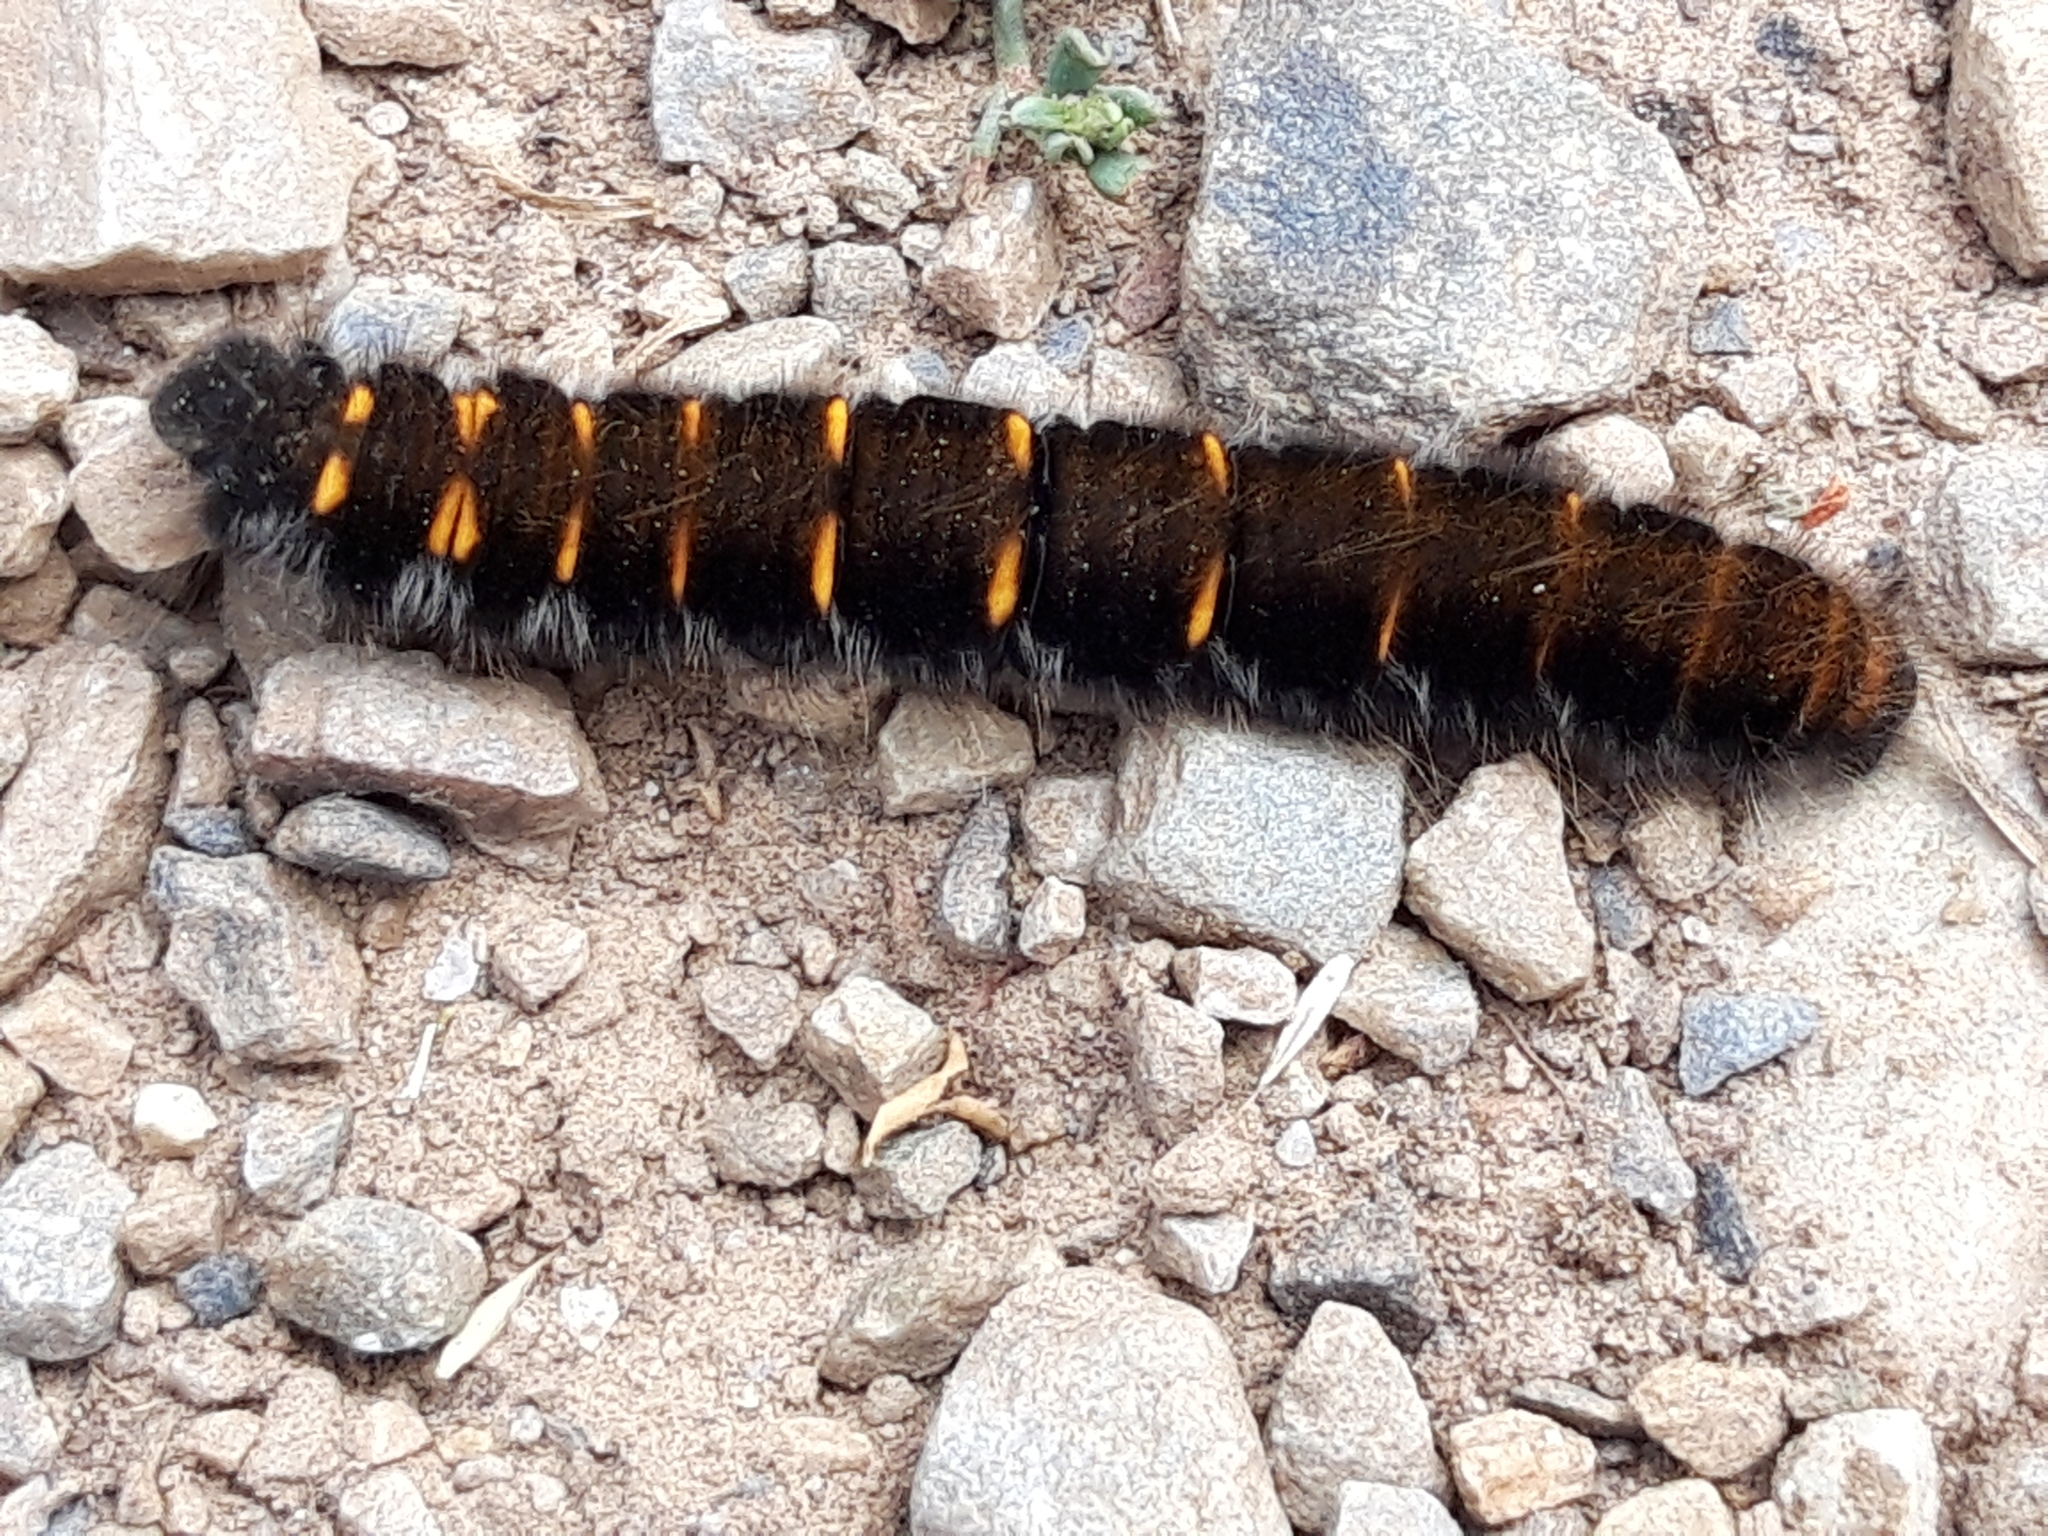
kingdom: Animalia
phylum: Arthropoda
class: Insecta
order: Lepidoptera
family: Lasiocampidae
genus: Macrothylacia
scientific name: Macrothylacia rubi
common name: Fox moth
